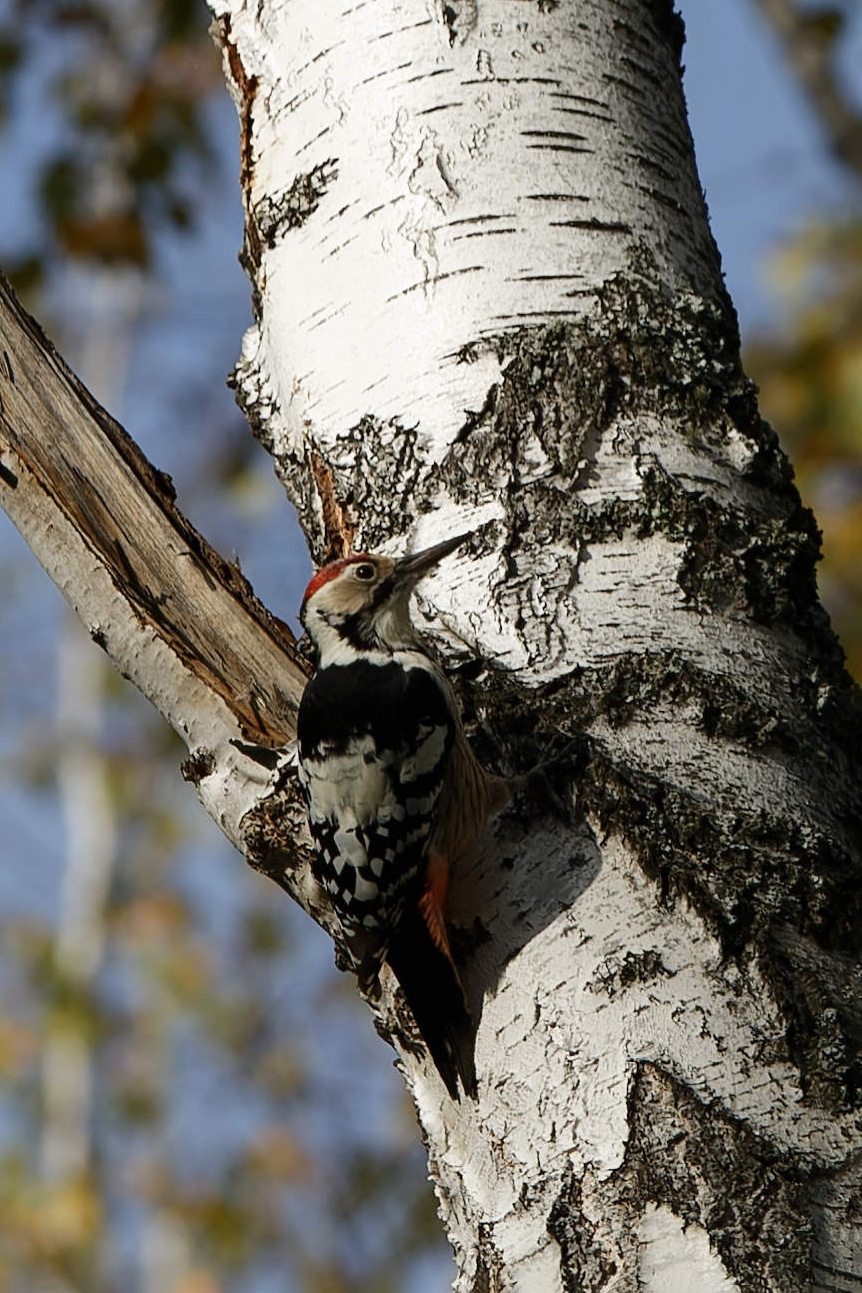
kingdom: Animalia
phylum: Chordata
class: Aves
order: Piciformes
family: Picidae
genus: Dendrocopos
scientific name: Dendrocopos leucotos
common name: White-backed woodpecker
